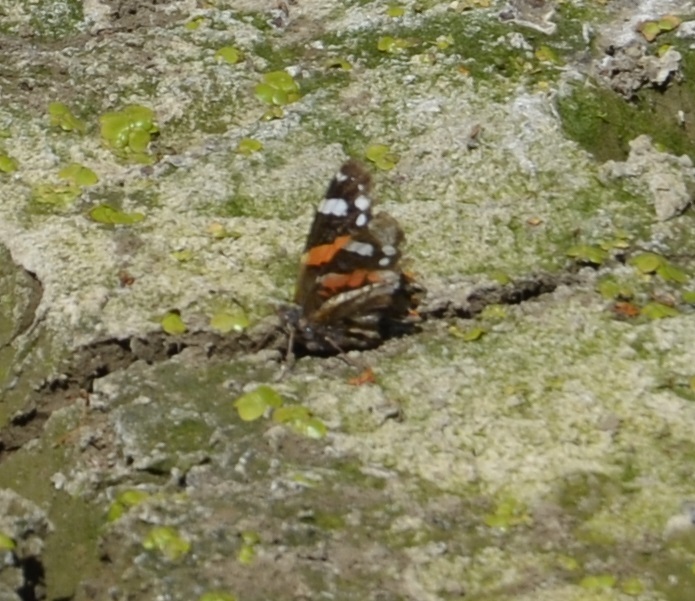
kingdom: Animalia
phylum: Arthropoda
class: Insecta
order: Lepidoptera
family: Nymphalidae
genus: Vanessa
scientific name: Vanessa atalanta
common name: Red admiral
